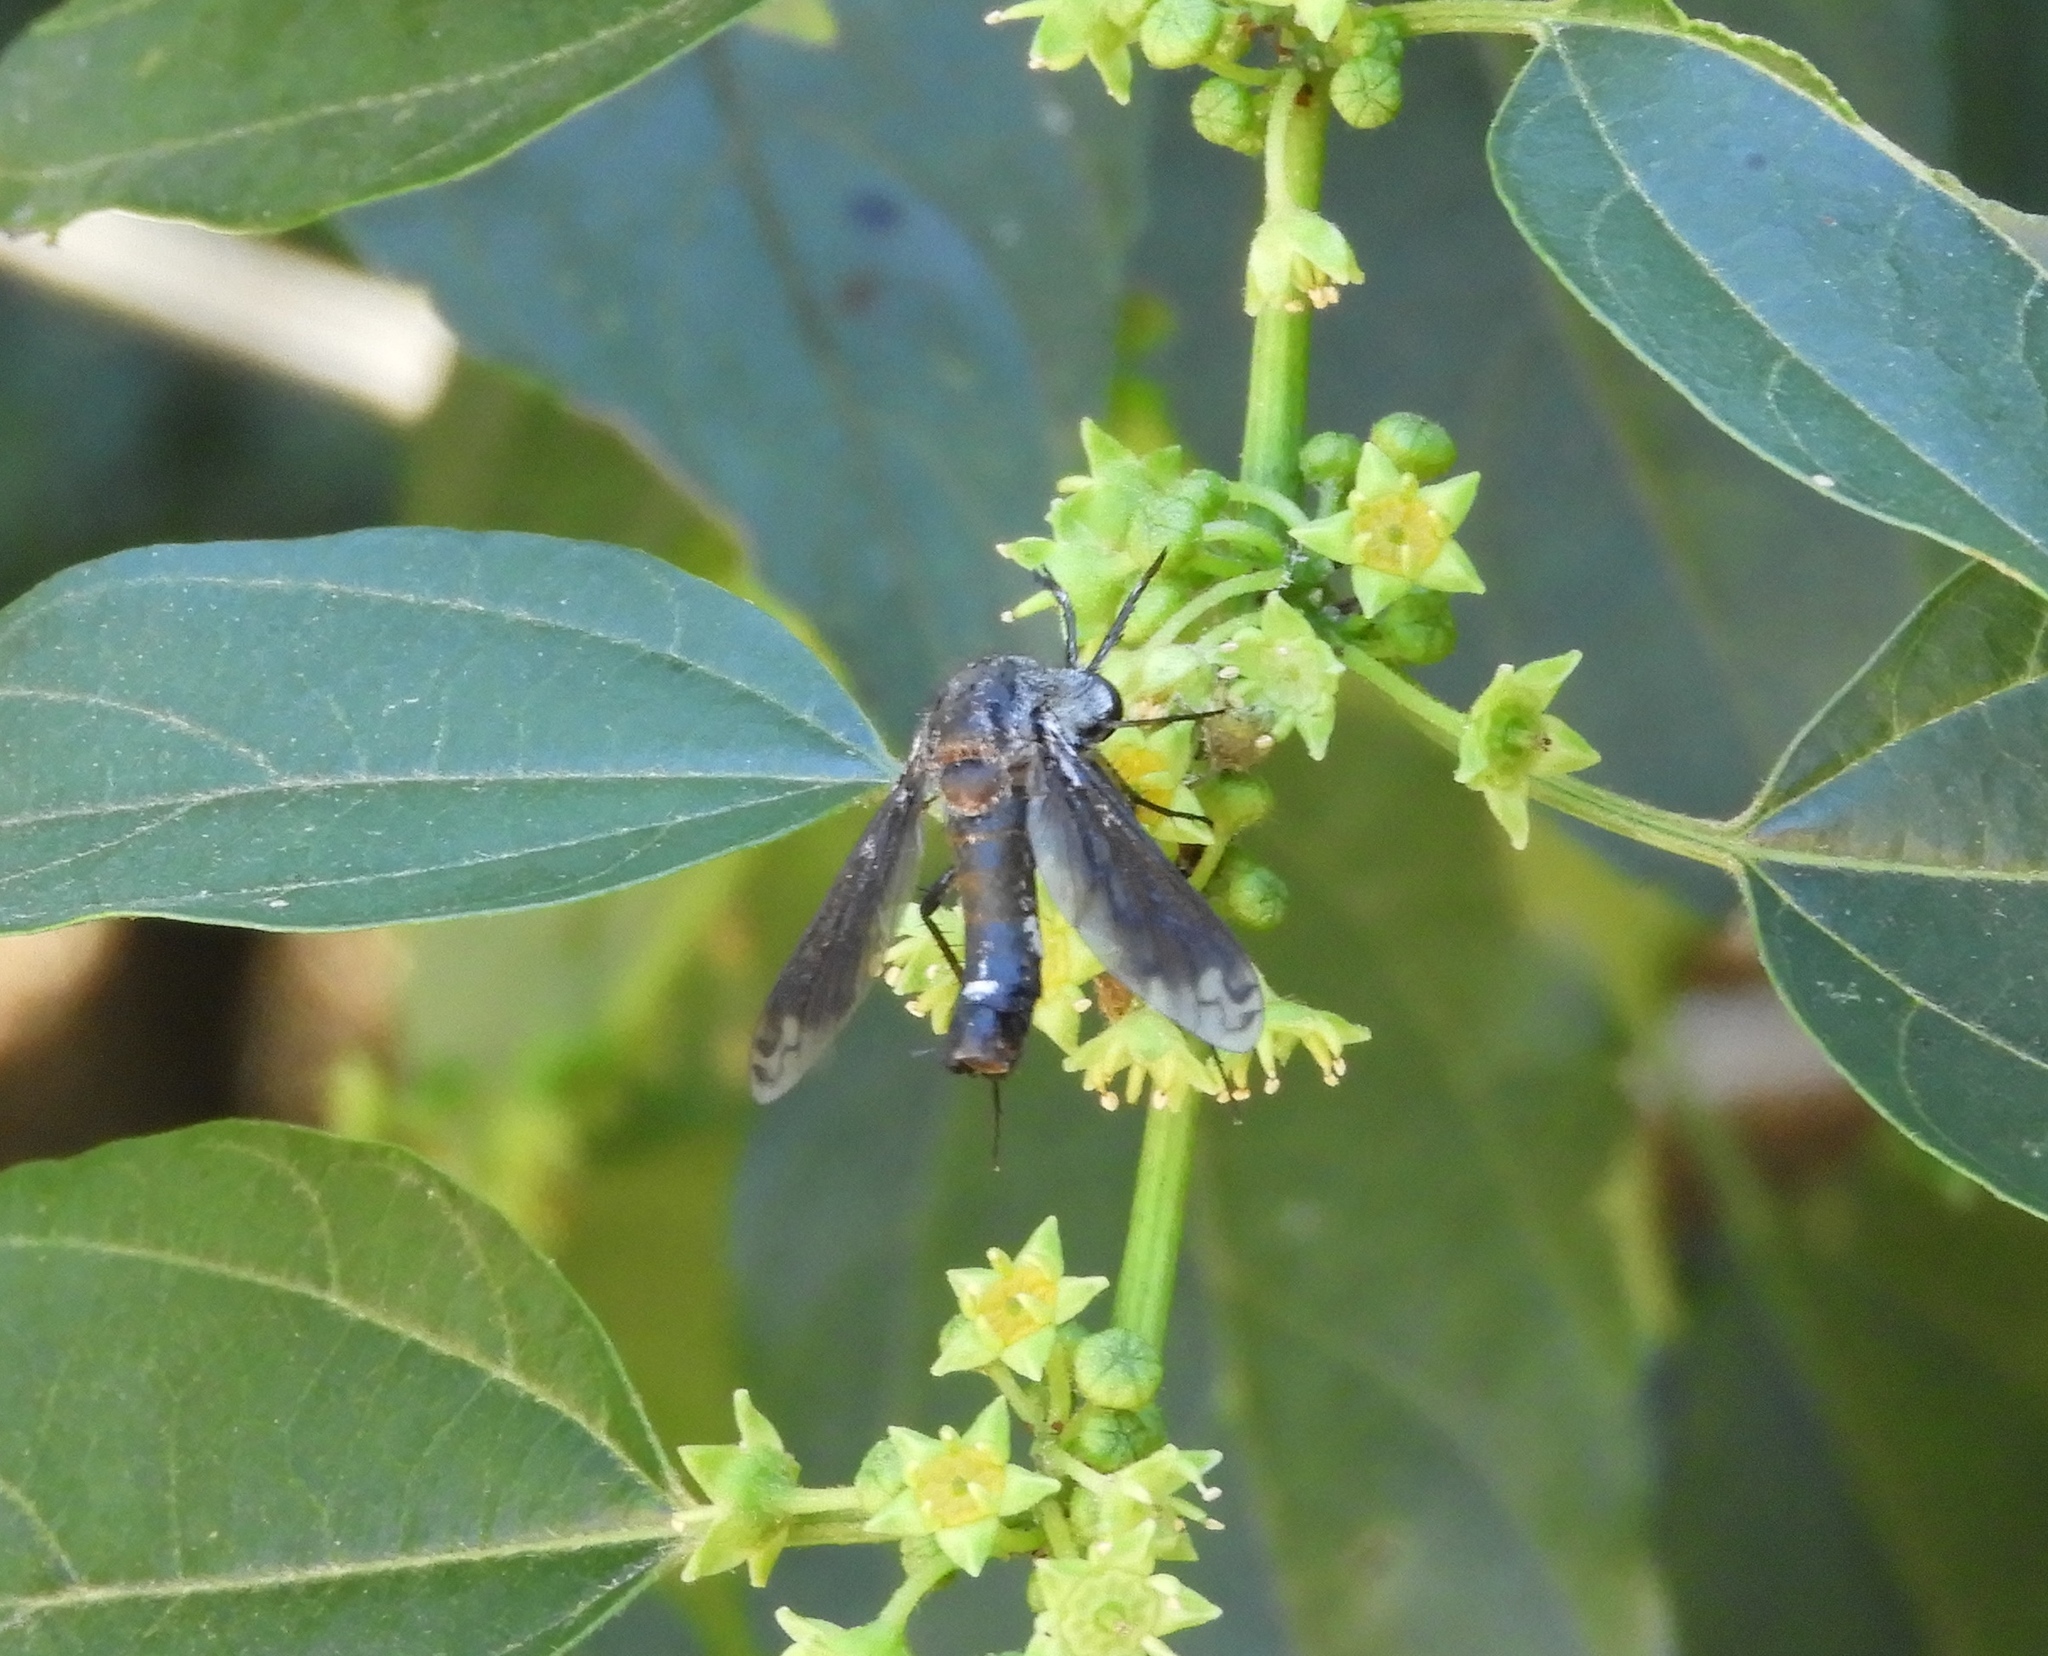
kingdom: Animalia
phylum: Arthropoda
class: Insecta
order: Diptera
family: Bombyliidae
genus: Lepidophora
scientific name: Lepidophora vetusta
